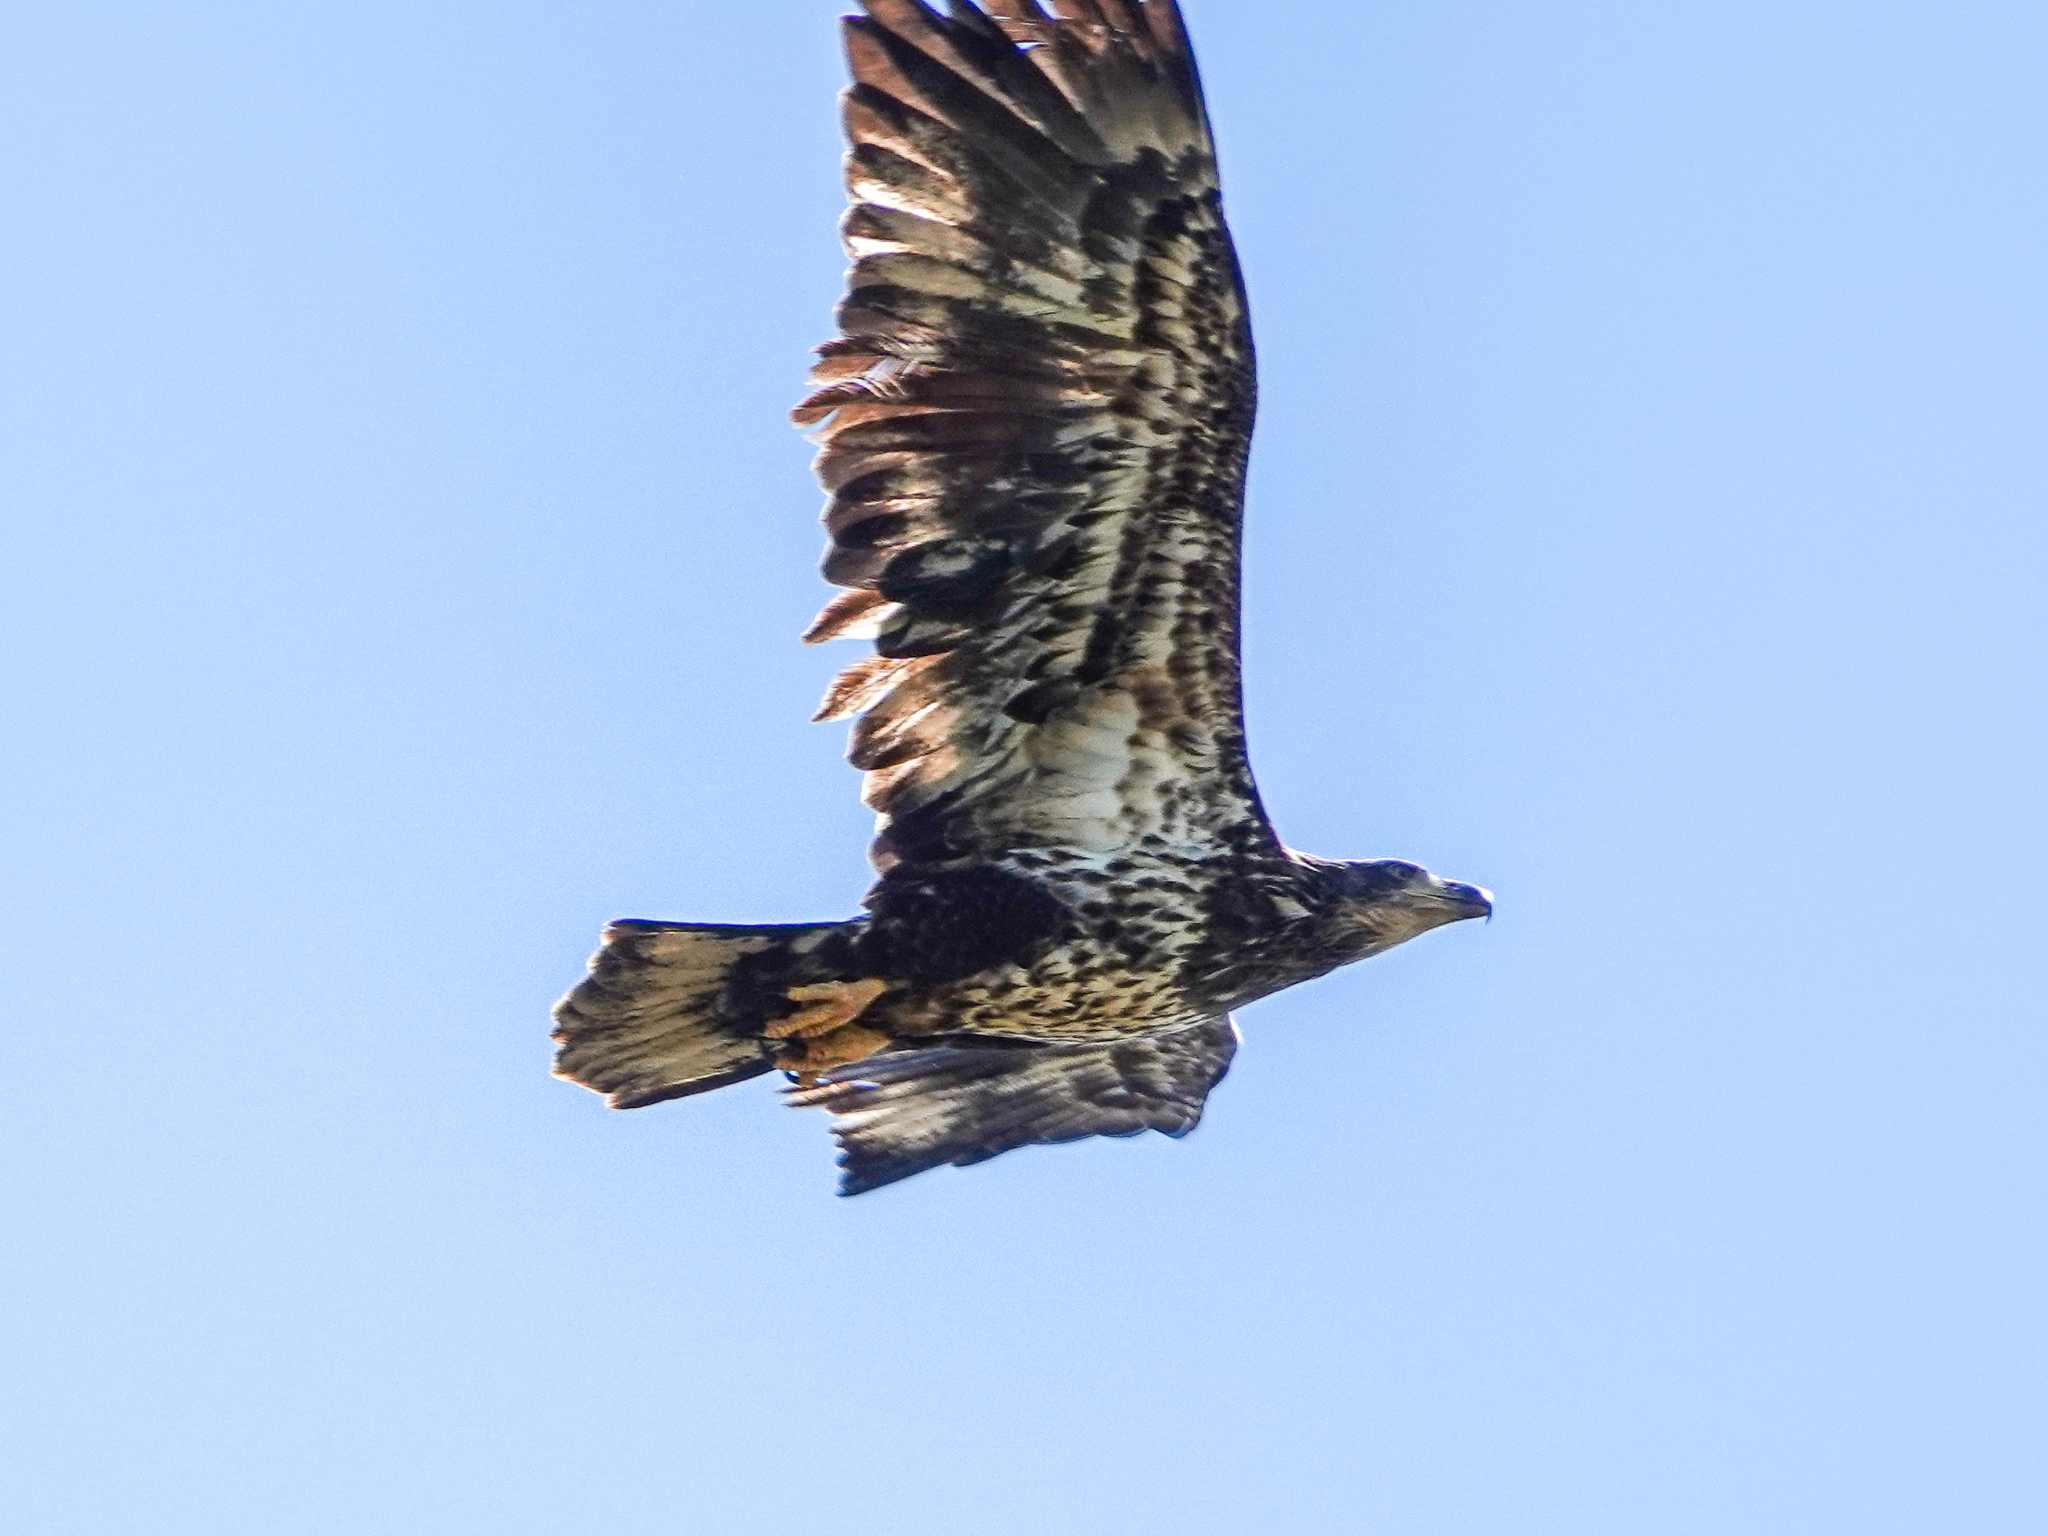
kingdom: Animalia
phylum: Chordata
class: Aves
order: Accipitriformes
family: Accipitridae
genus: Haliaeetus
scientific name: Haliaeetus leucocephalus
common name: Bald eagle
